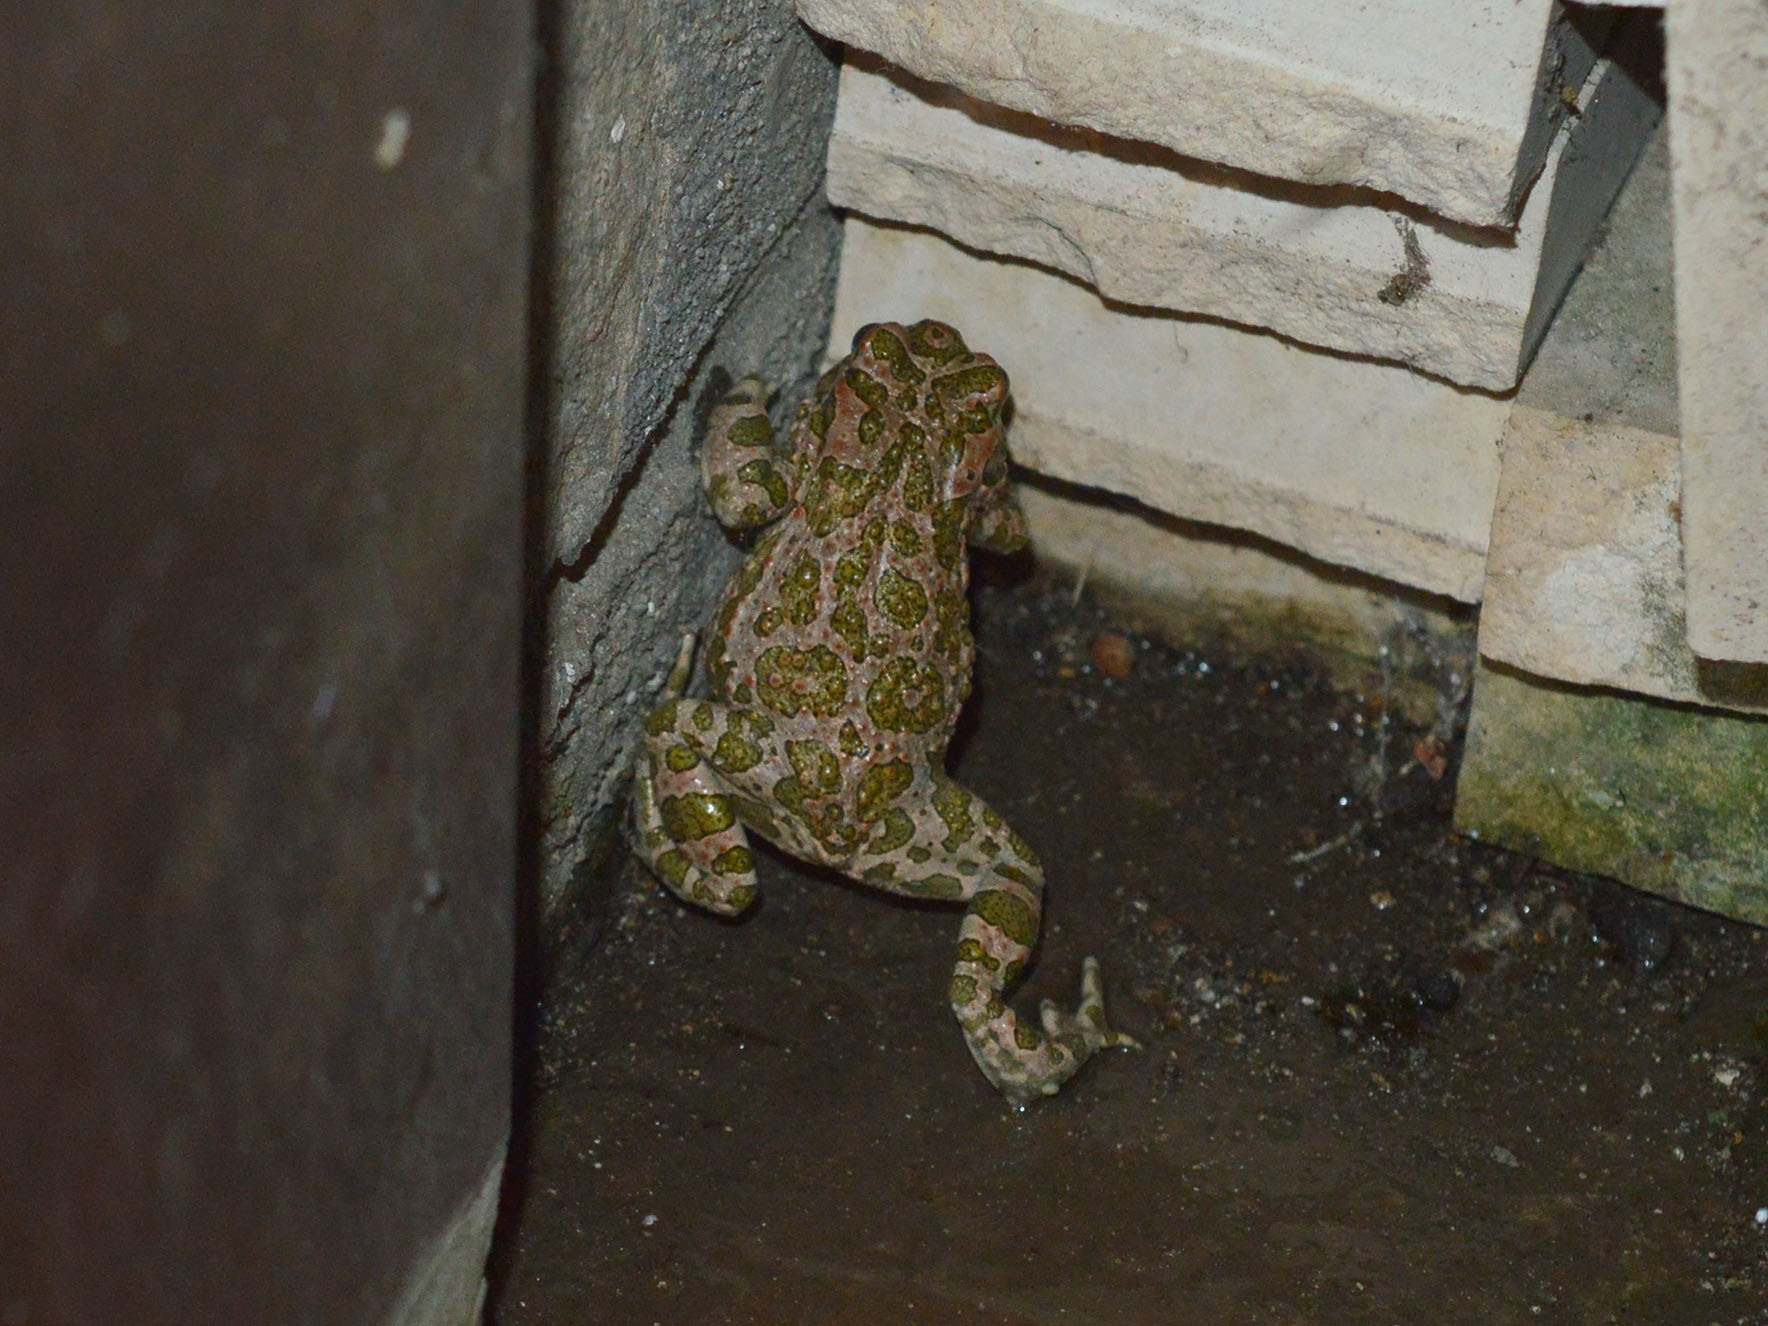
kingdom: Animalia
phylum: Chordata
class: Amphibia
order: Anura
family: Bufonidae
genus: Bufotes
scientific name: Bufotes viridis
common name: European green toad
